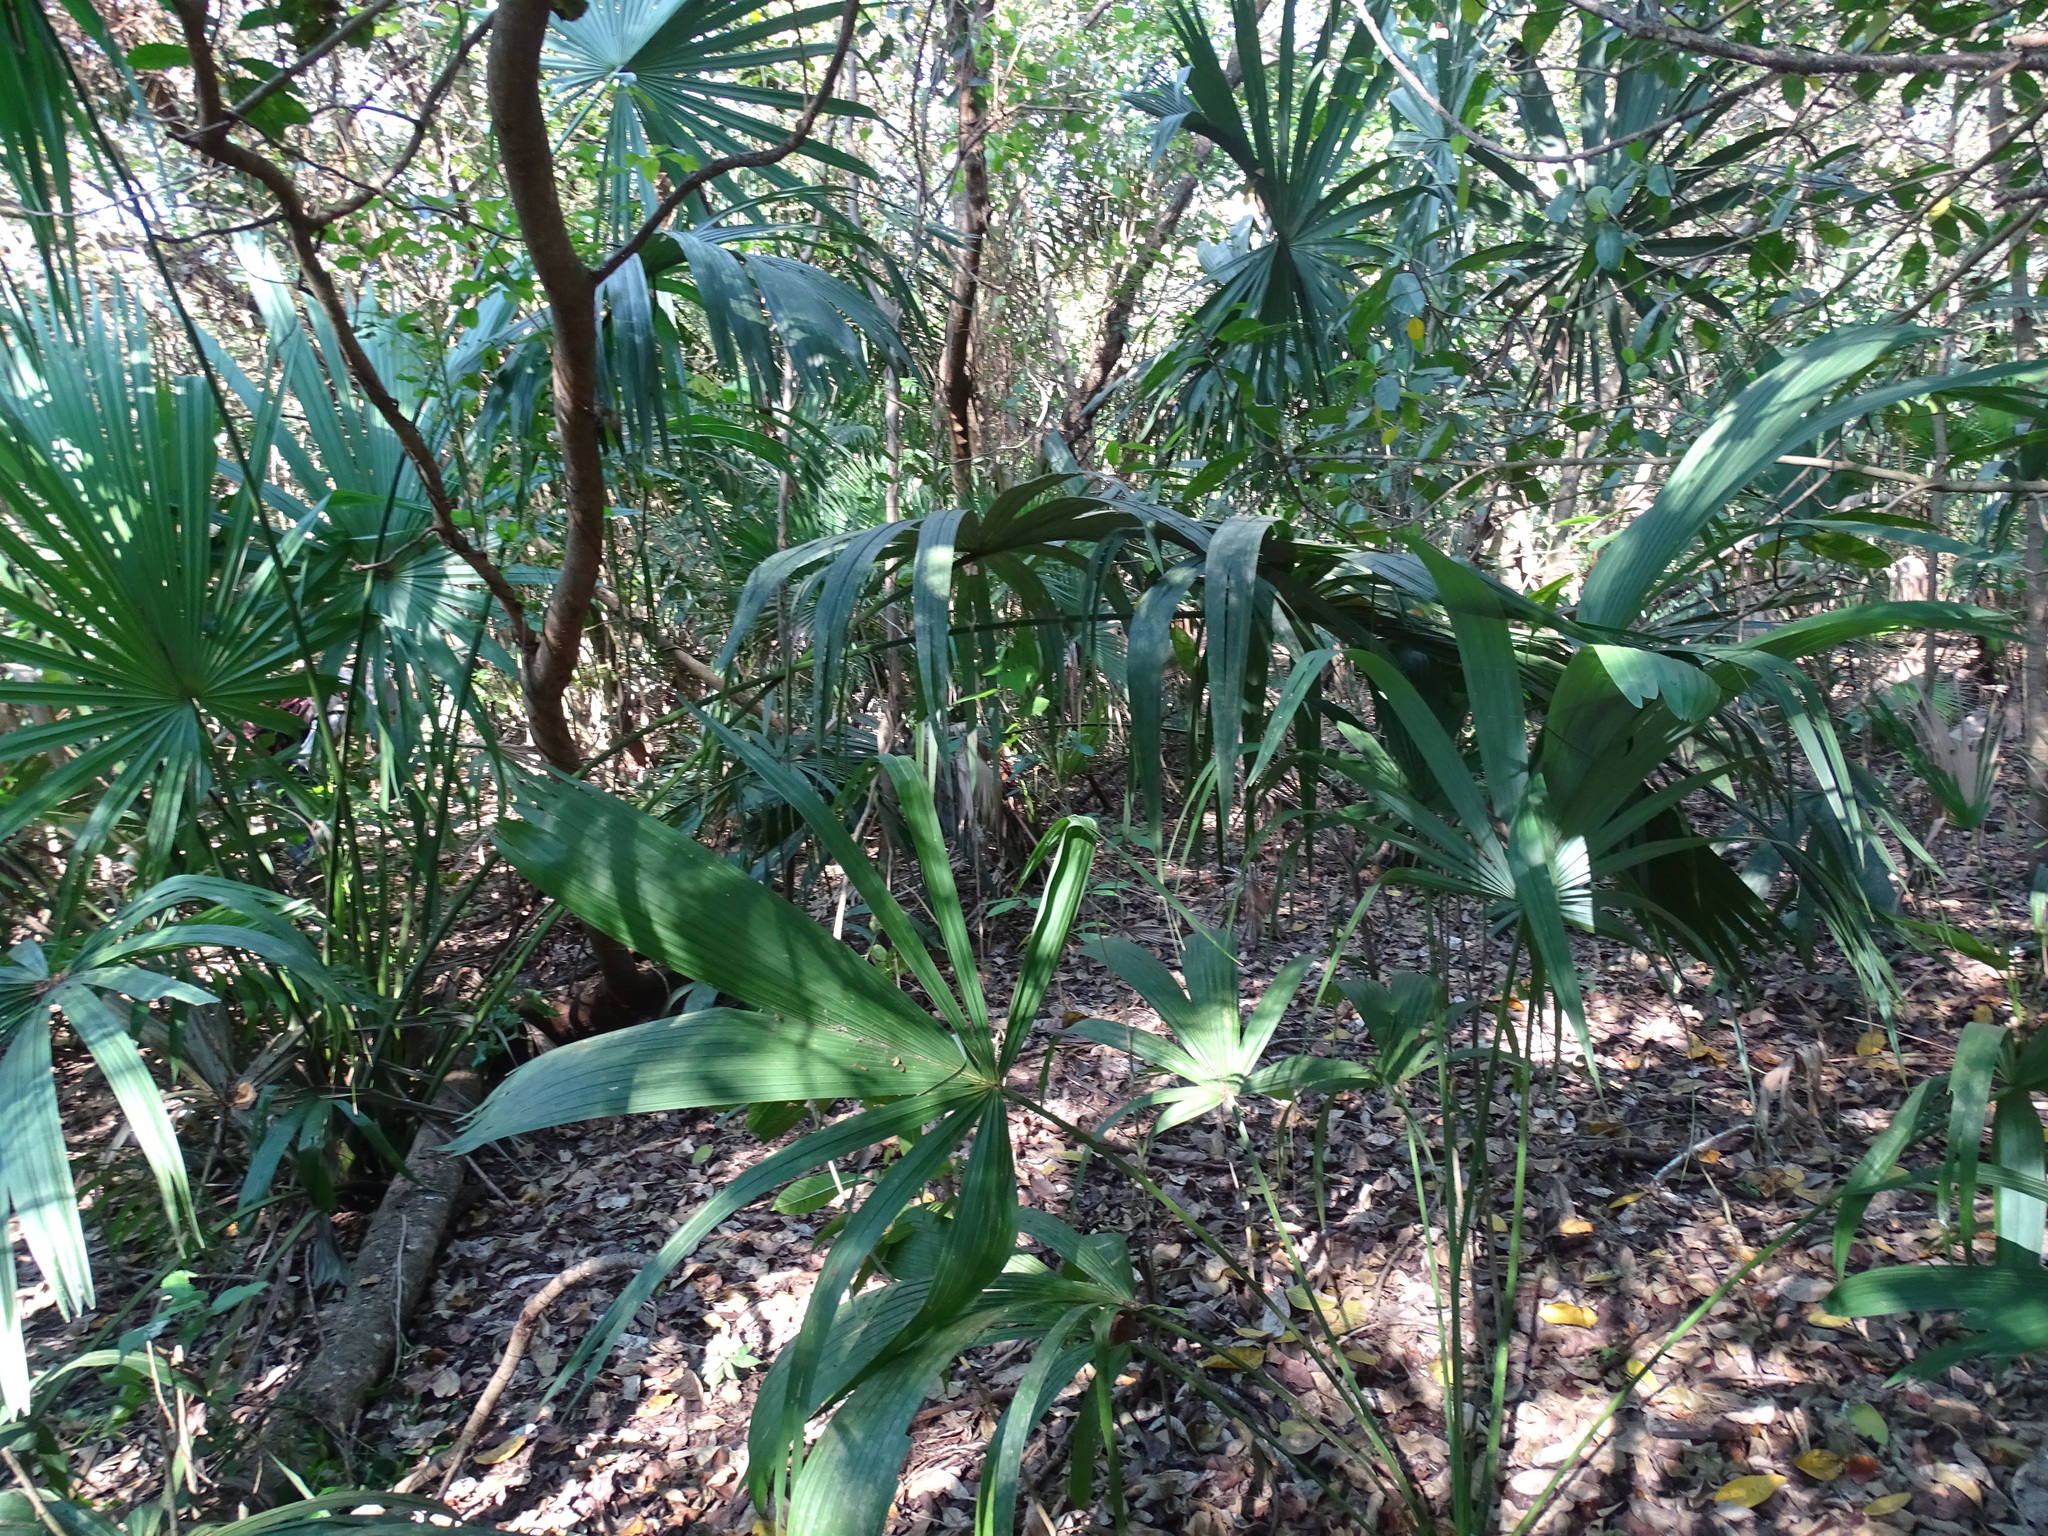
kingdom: Plantae
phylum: Tracheophyta
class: Liliopsida
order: Arecales
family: Arecaceae
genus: Thrinax
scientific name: Thrinax radiata
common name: Florida thatch
